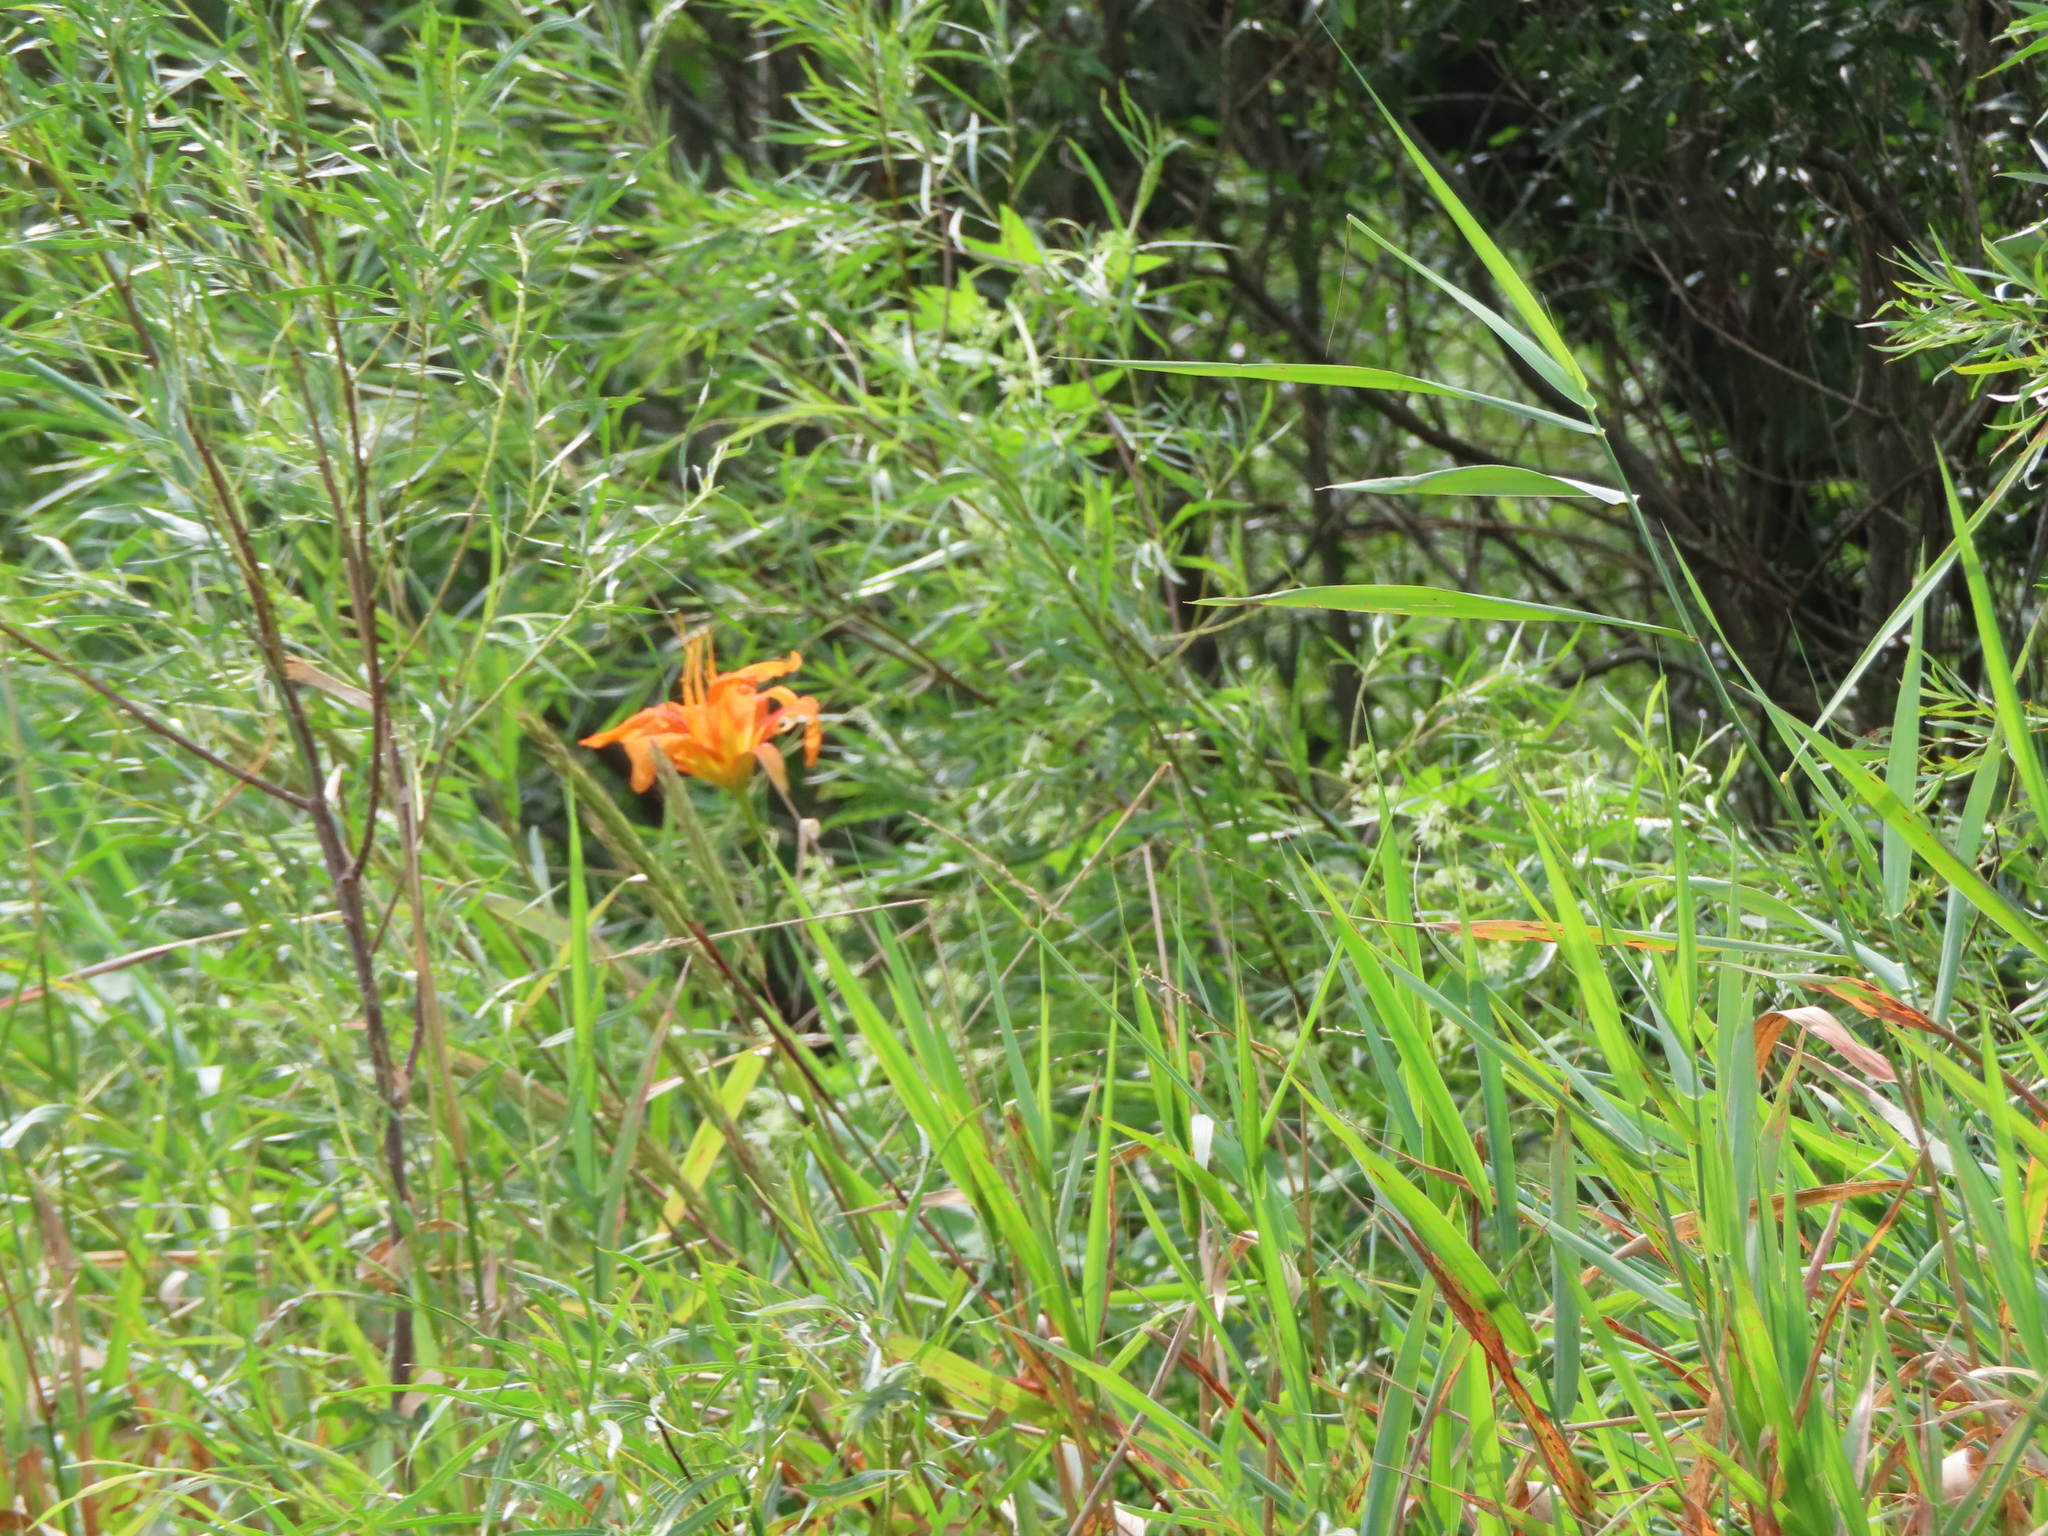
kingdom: Plantae
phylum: Tracheophyta
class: Magnoliopsida
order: Cucurbitales
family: Cucurbitaceae
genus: Echinocystis
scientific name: Echinocystis lobata
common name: Wild cucumber
